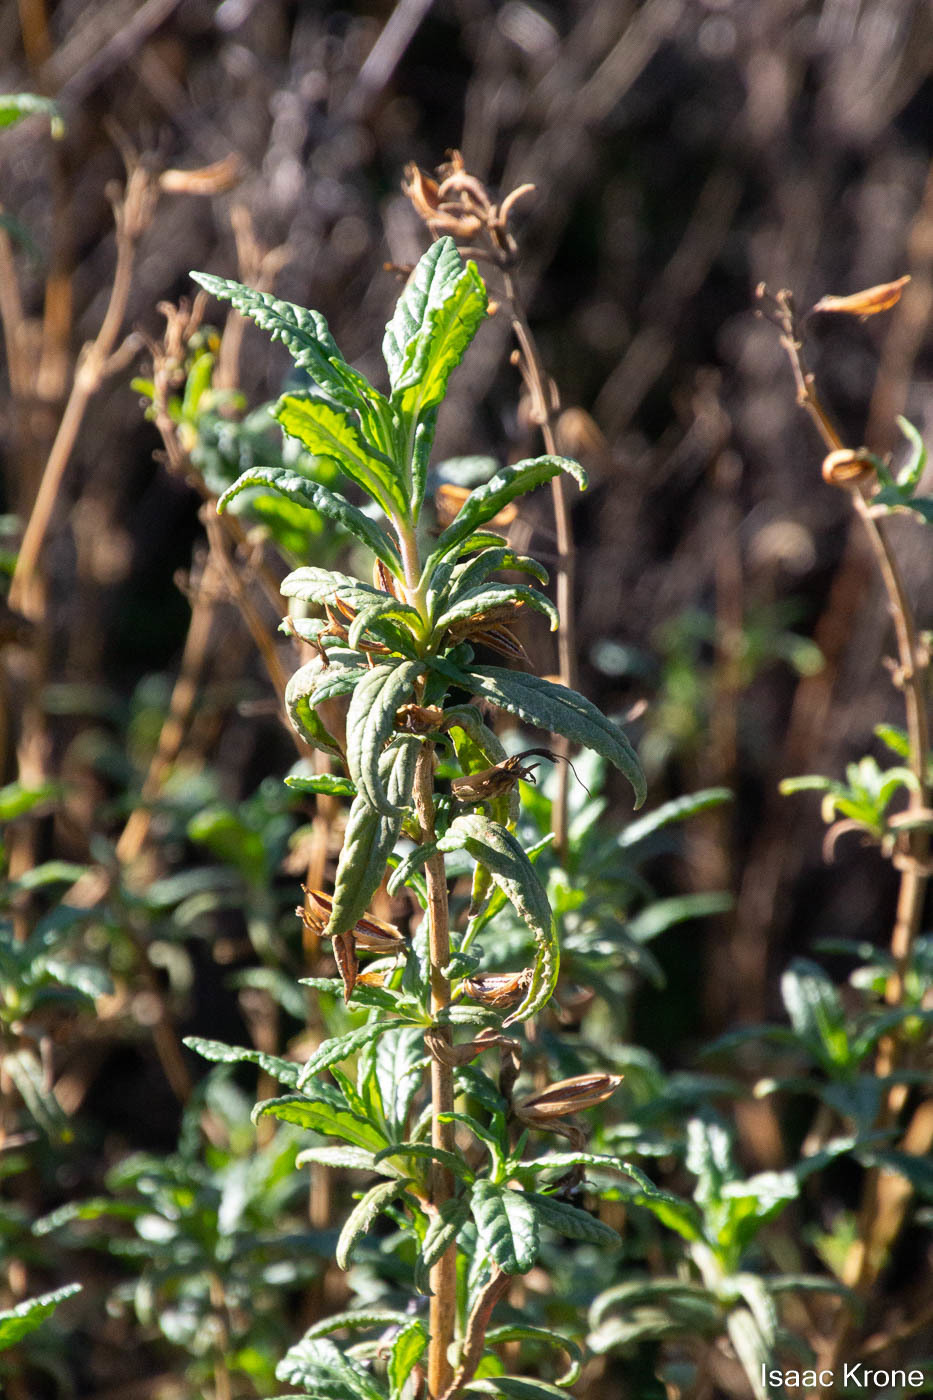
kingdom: Plantae
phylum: Tracheophyta
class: Magnoliopsida
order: Lamiales
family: Phrymaceae
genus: Diplacus
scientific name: Diplacus aurantiacus
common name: Bush monkey-flower
